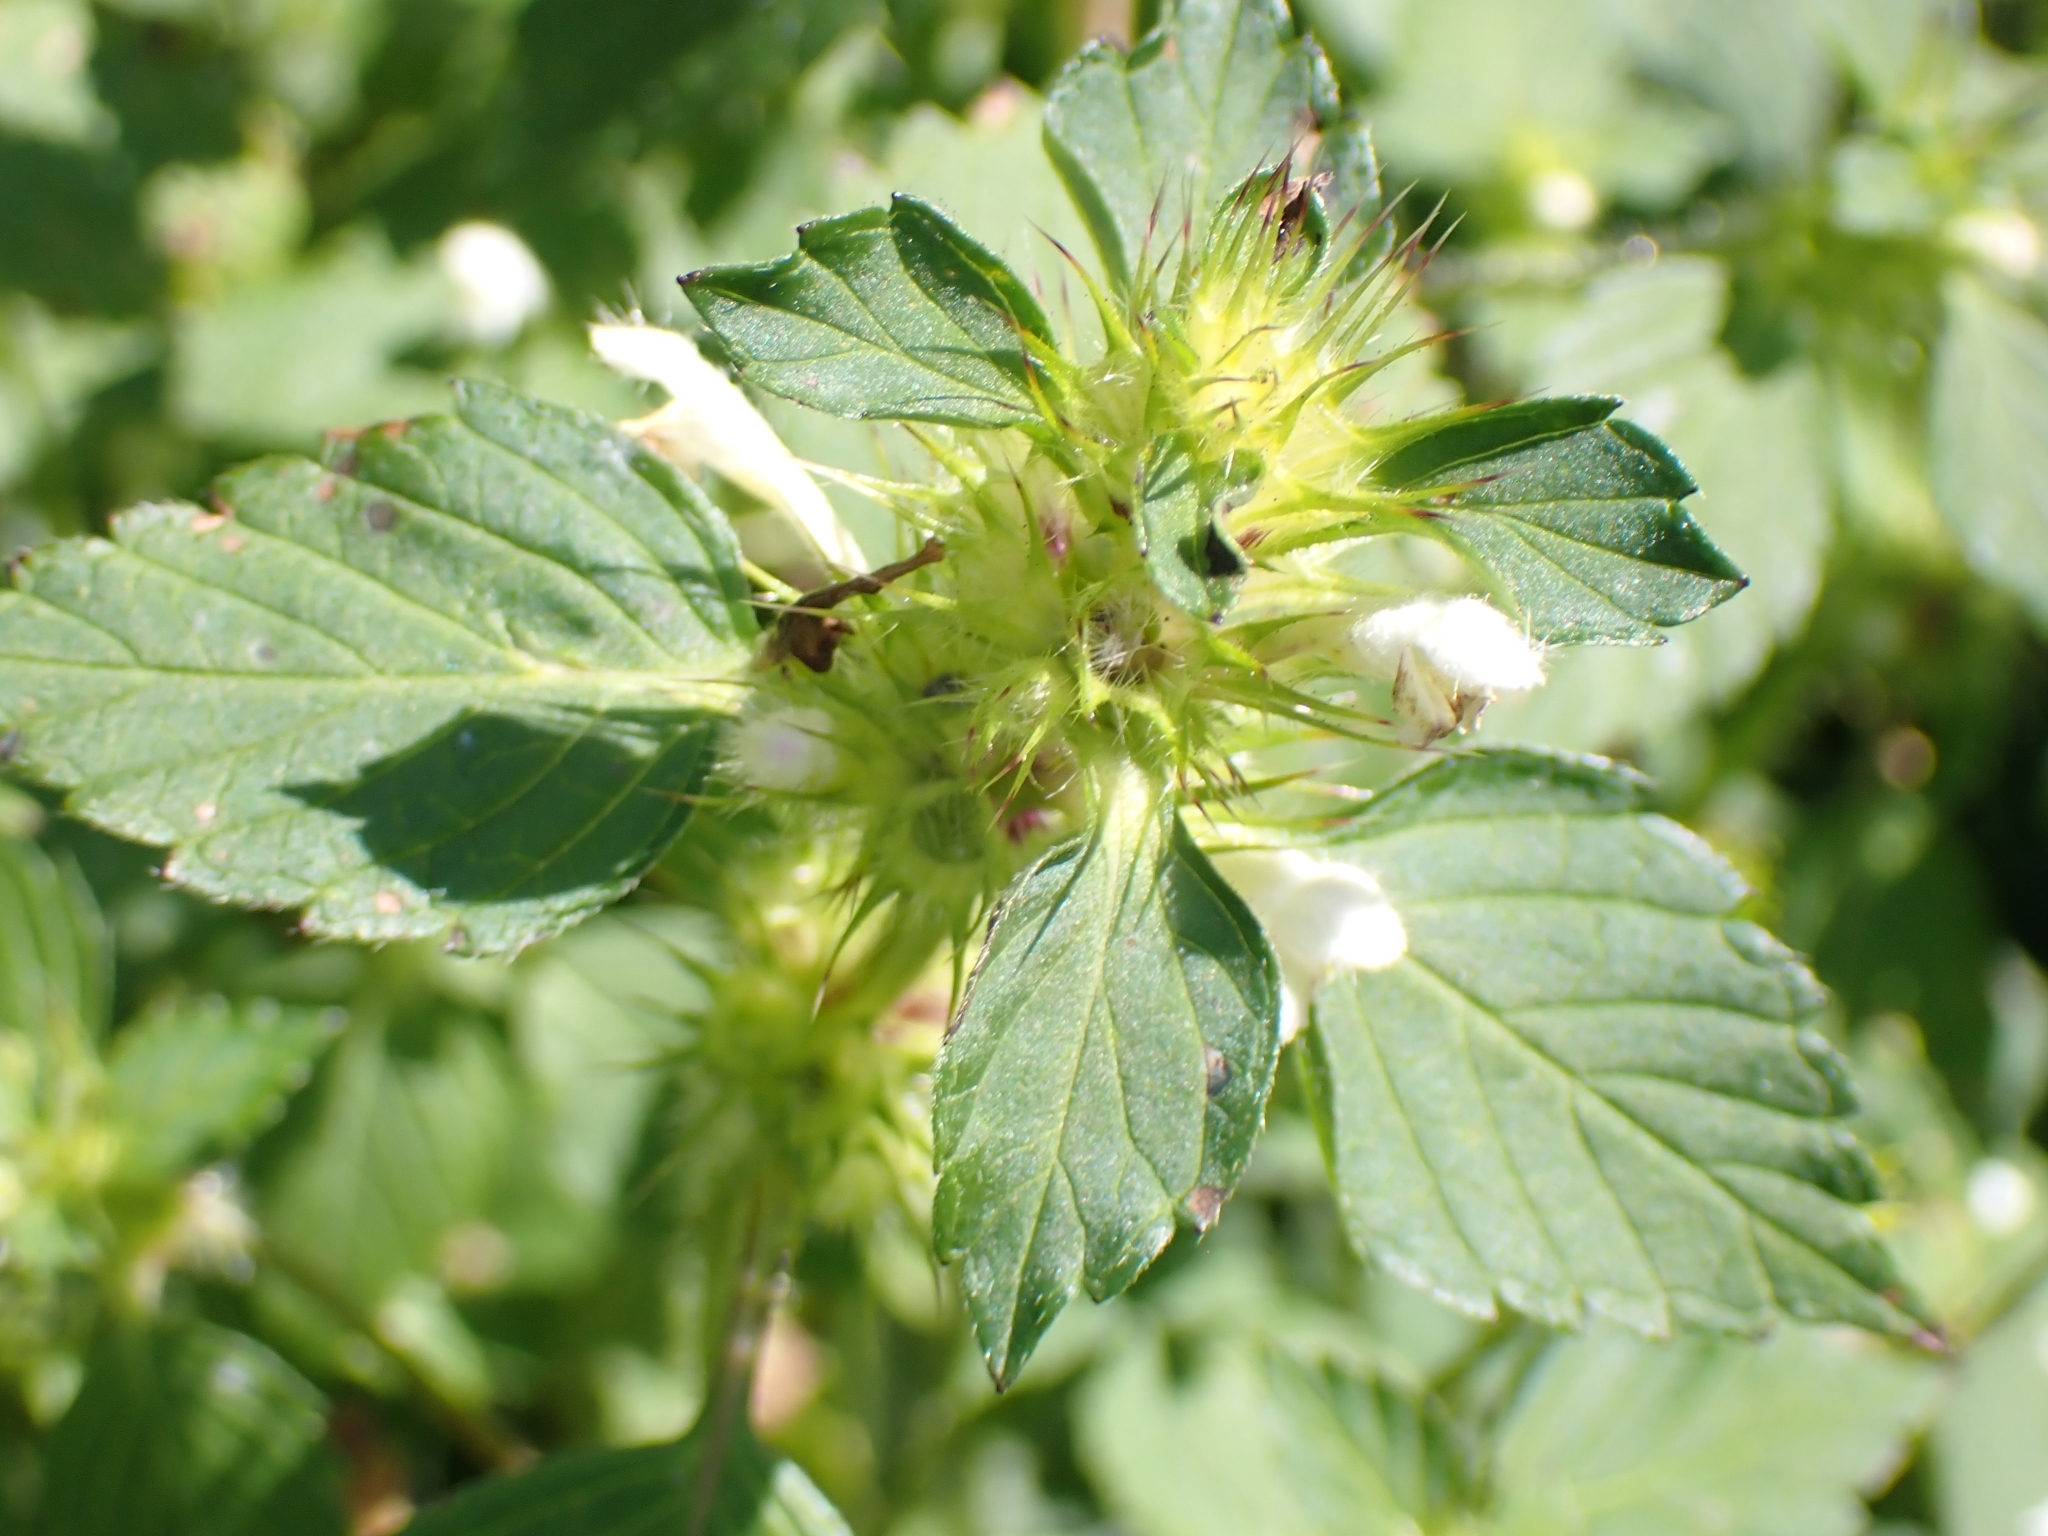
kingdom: Plantae
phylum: Tracheophyta
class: Magnoliopsida
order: Lamiales
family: Lamiaceae
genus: Galeopsis
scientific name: Galeopsis tetrahit
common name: Common hemp-nettle
